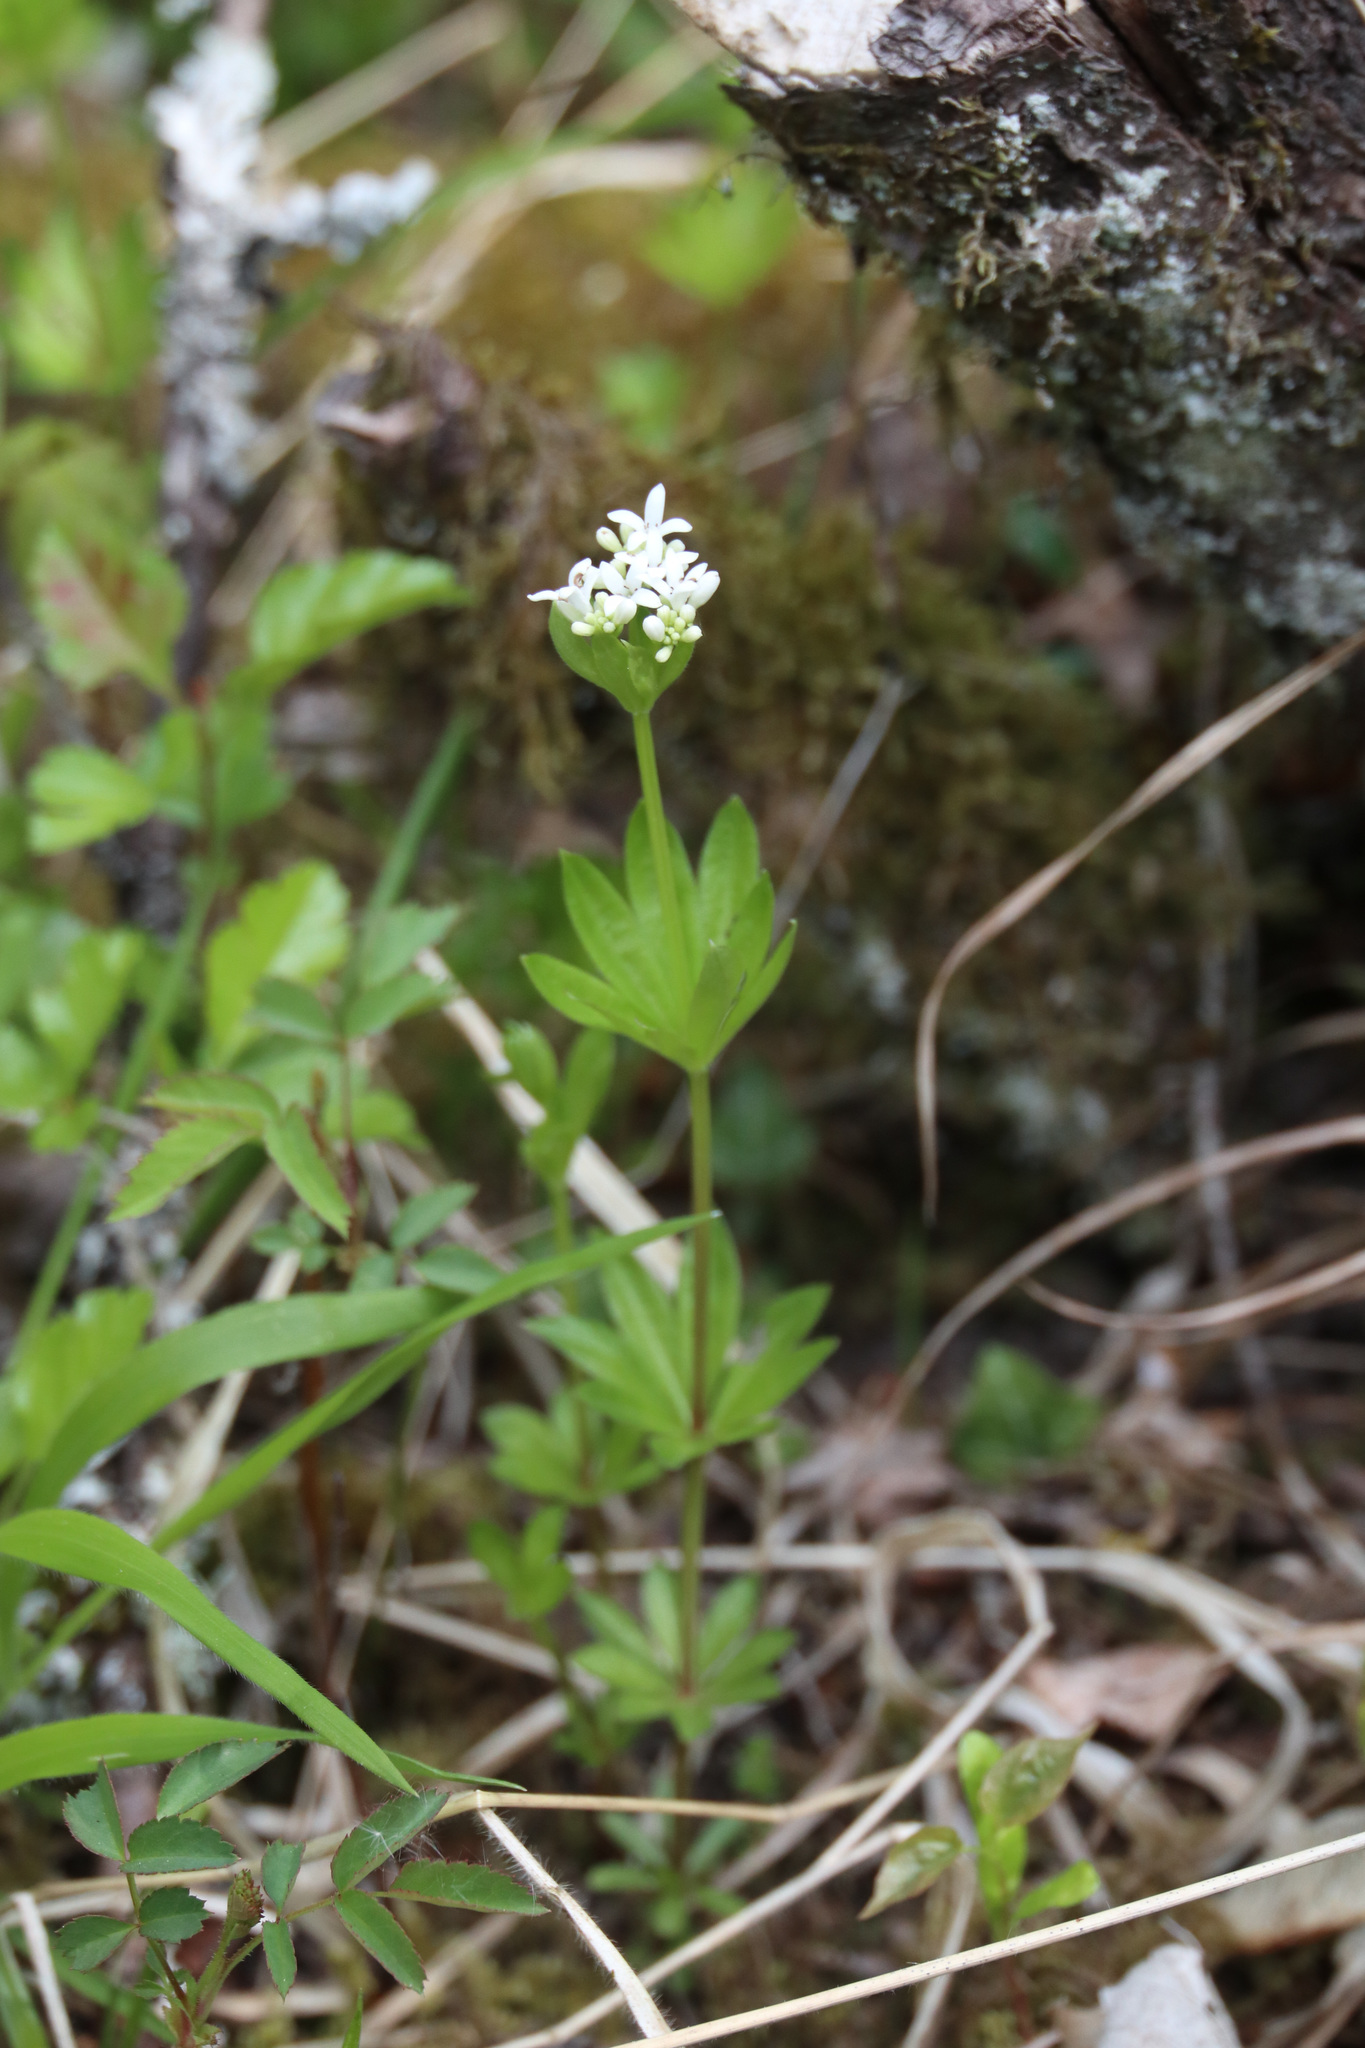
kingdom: Plantae
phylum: Tracheophyta
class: Magnoliopsida
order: Gentianales
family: Rubiaceae
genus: Galium
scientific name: Galium odoratum
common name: Sweet woodruff
